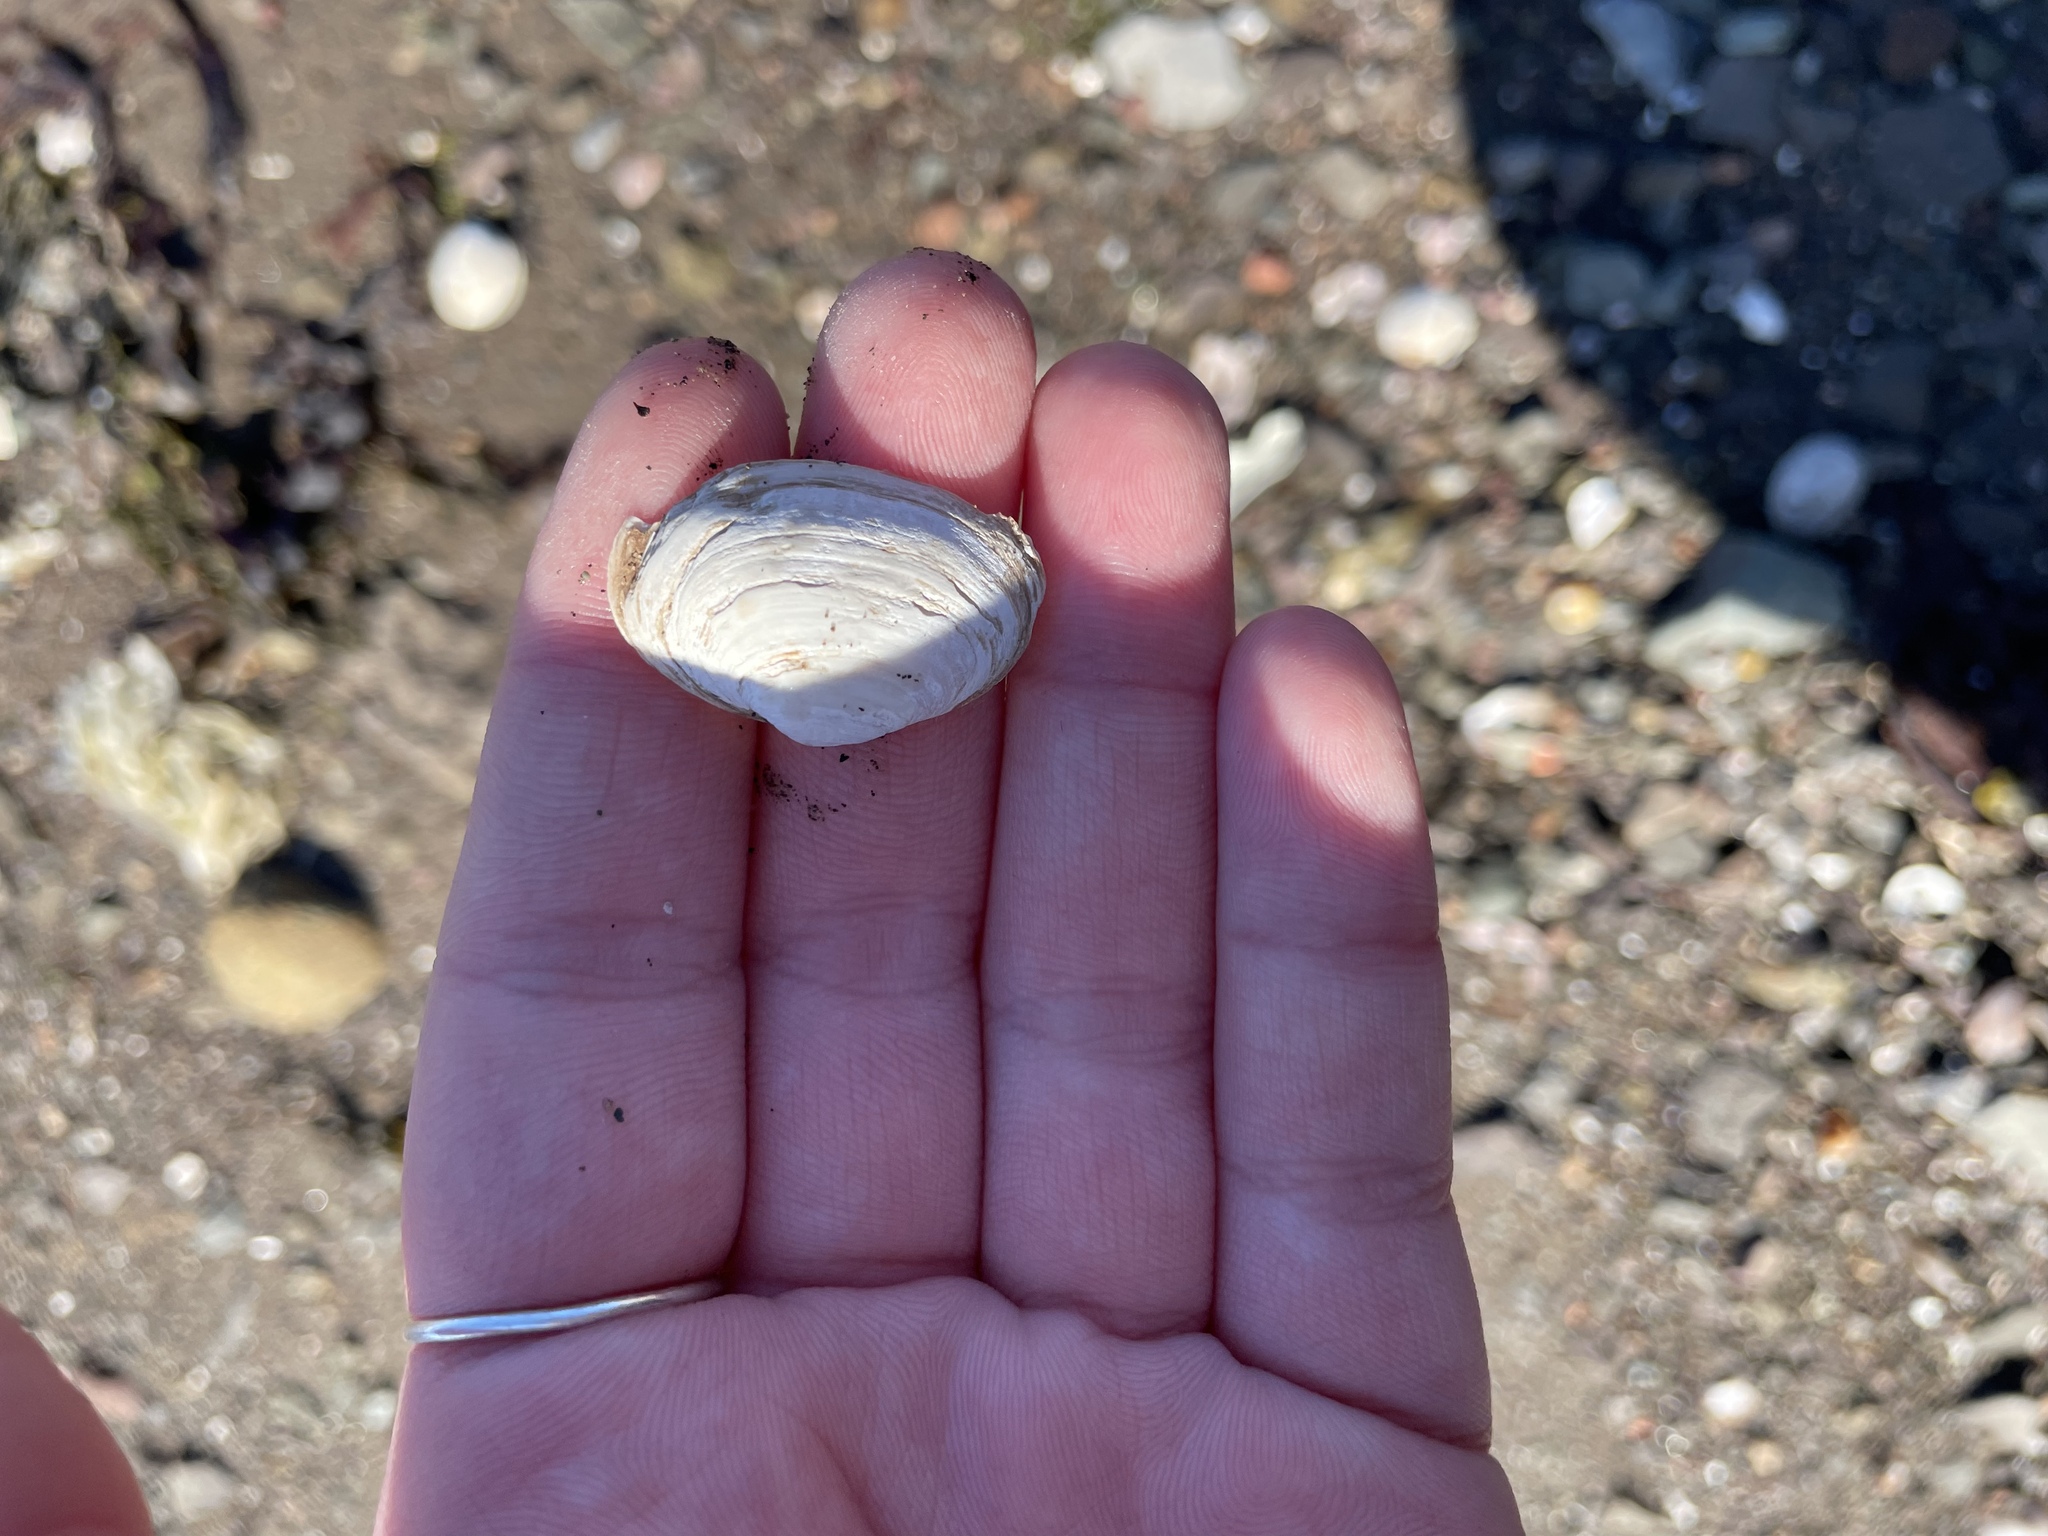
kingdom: Animalia
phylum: Mollusca
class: Bivalvia
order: Myida
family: Myidae
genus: Mya
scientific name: Mya arenaria
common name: Soft-shelled clam
